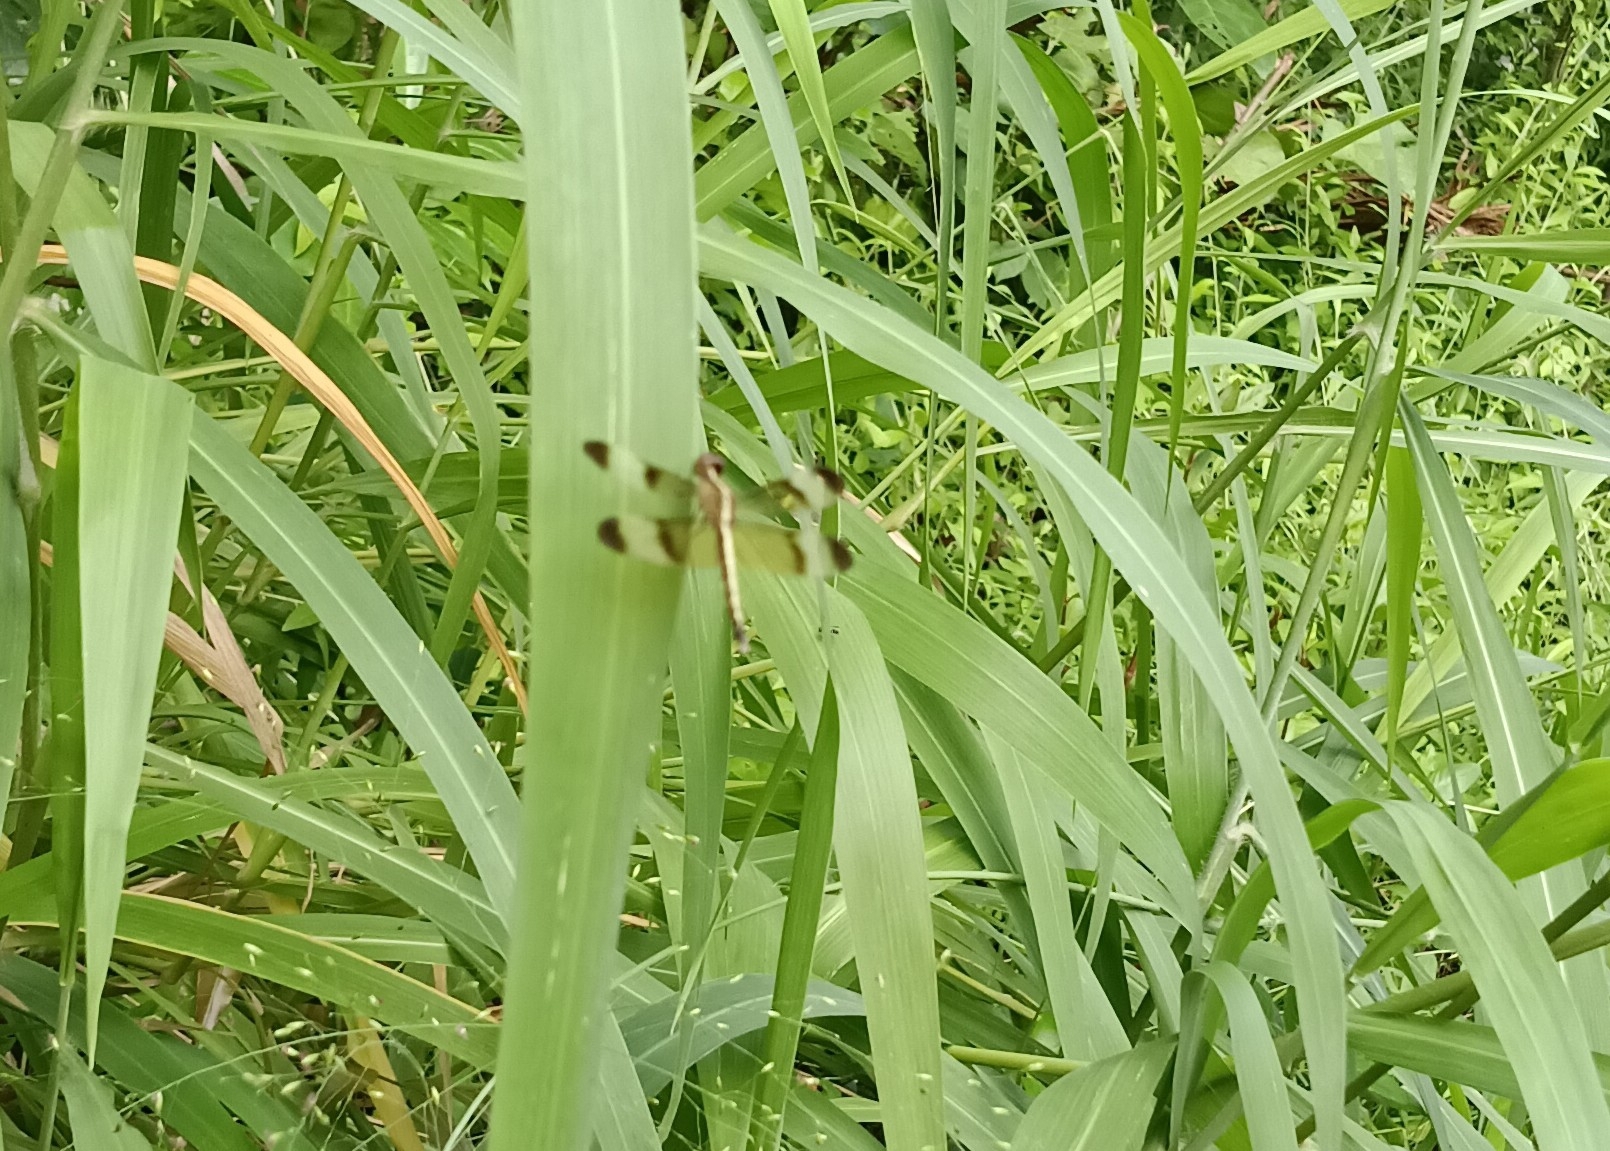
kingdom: Animalia
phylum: Arthropoda
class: Insecta
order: Odonata
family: Libellulidae
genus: Neurothemis
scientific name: Neurothemis tullia
